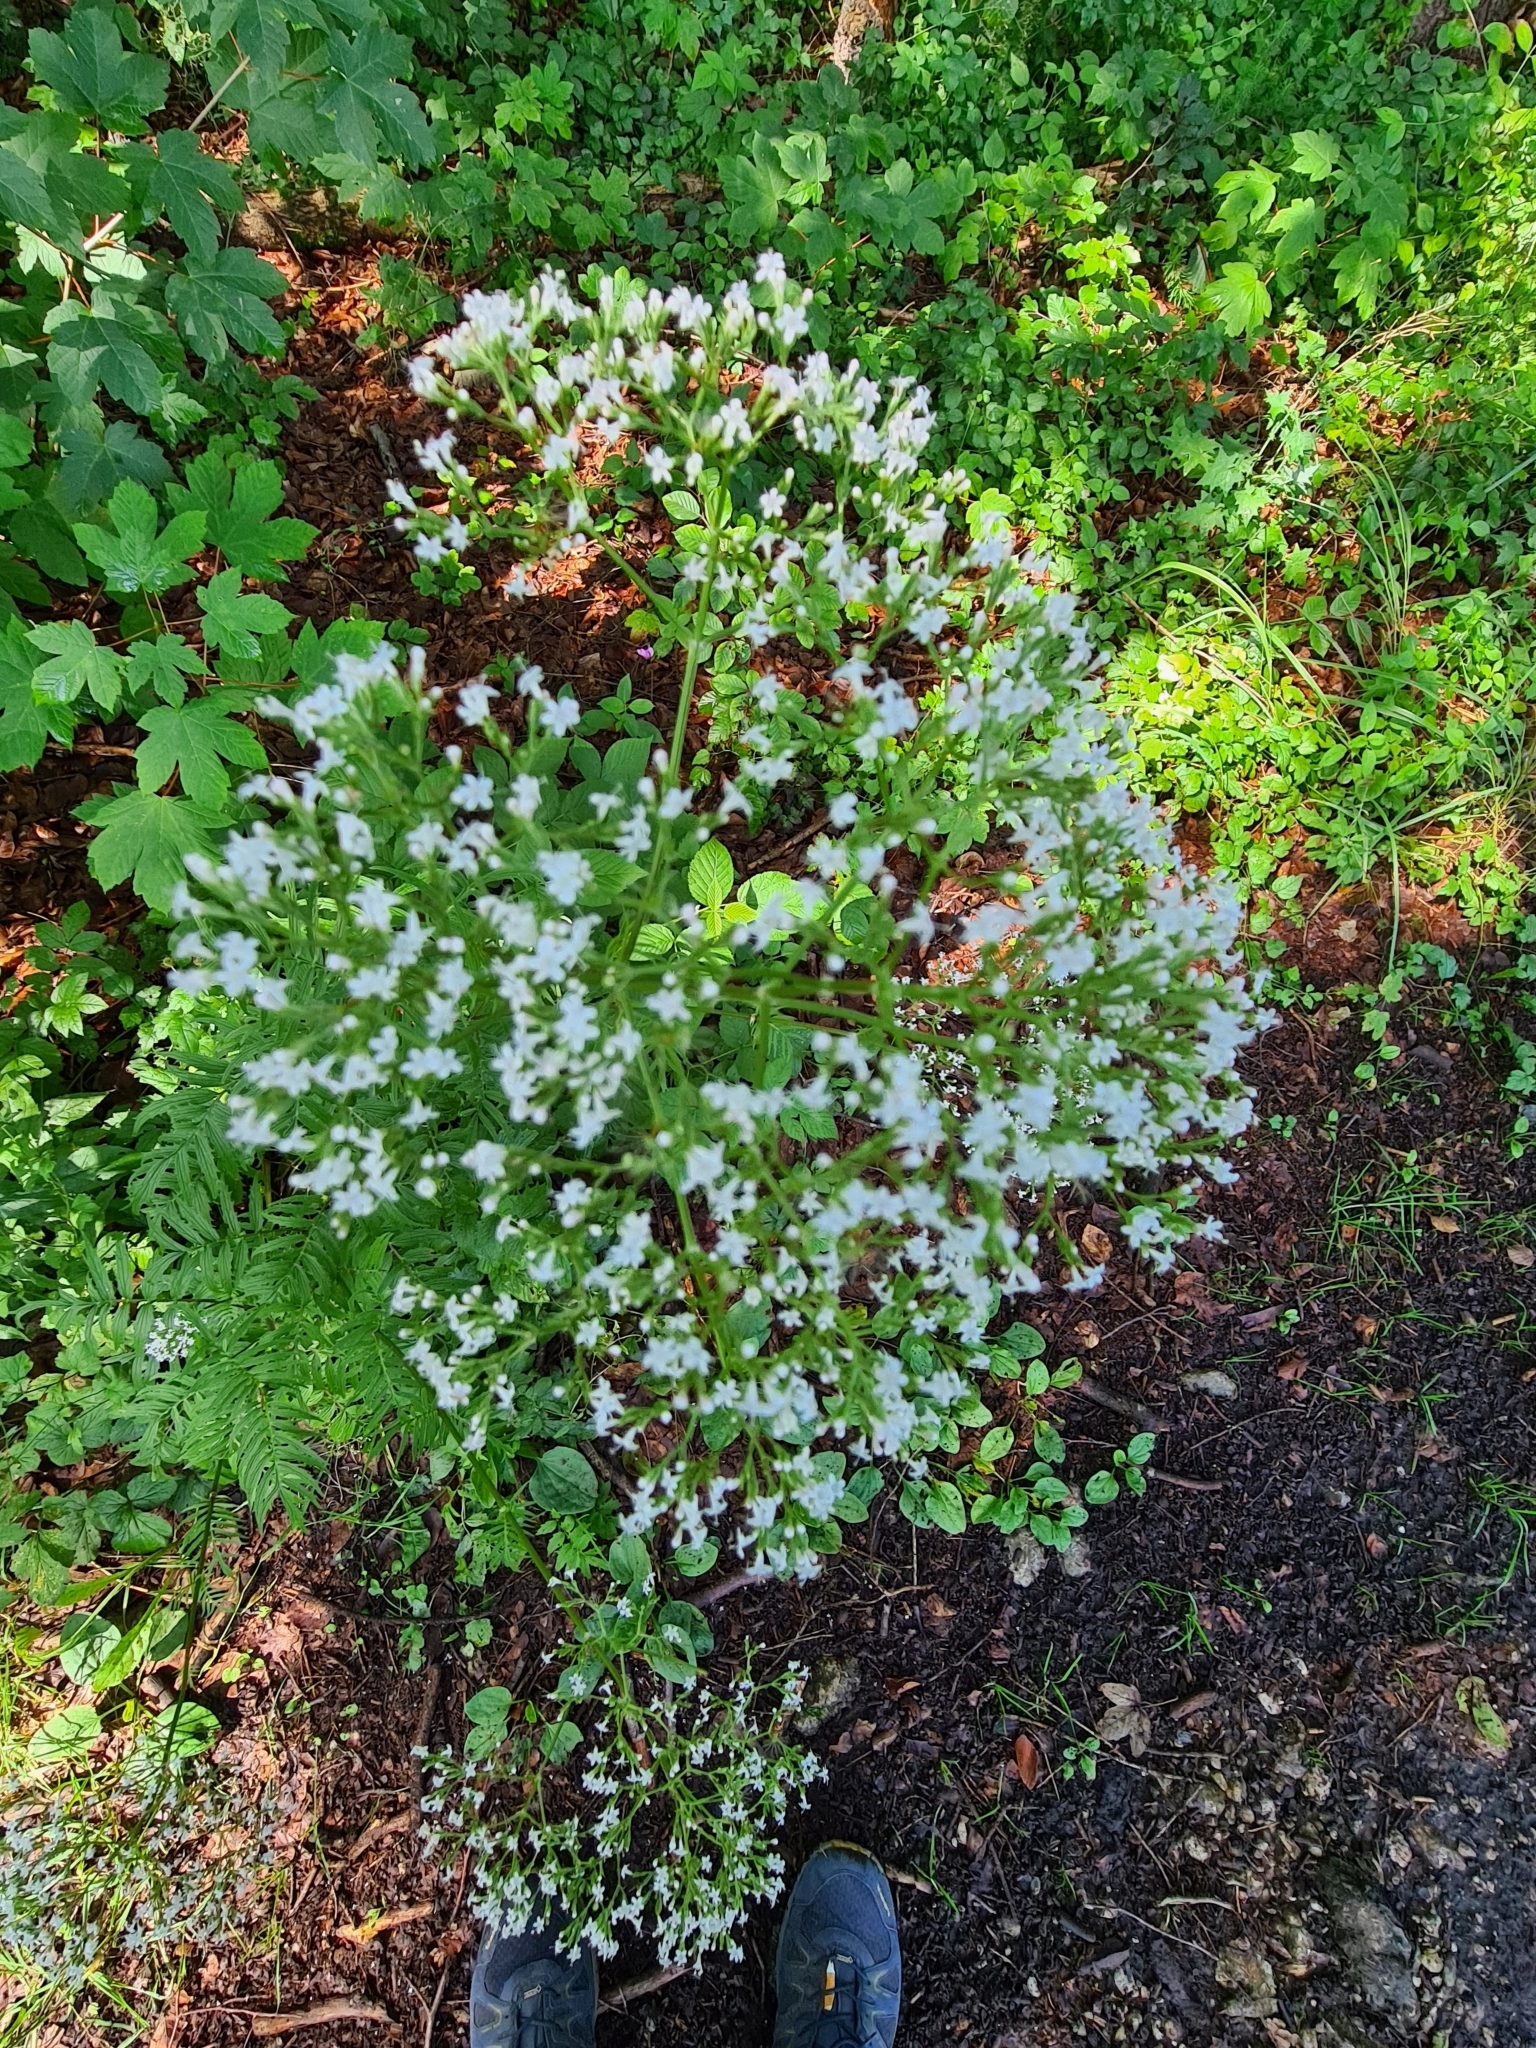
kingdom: Plantae
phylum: Tracheophyta
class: Magnoliopsida
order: Dipsacales
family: Caprifoliaceae
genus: Valeriana
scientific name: Valeriana officinalis
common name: Common valerian
